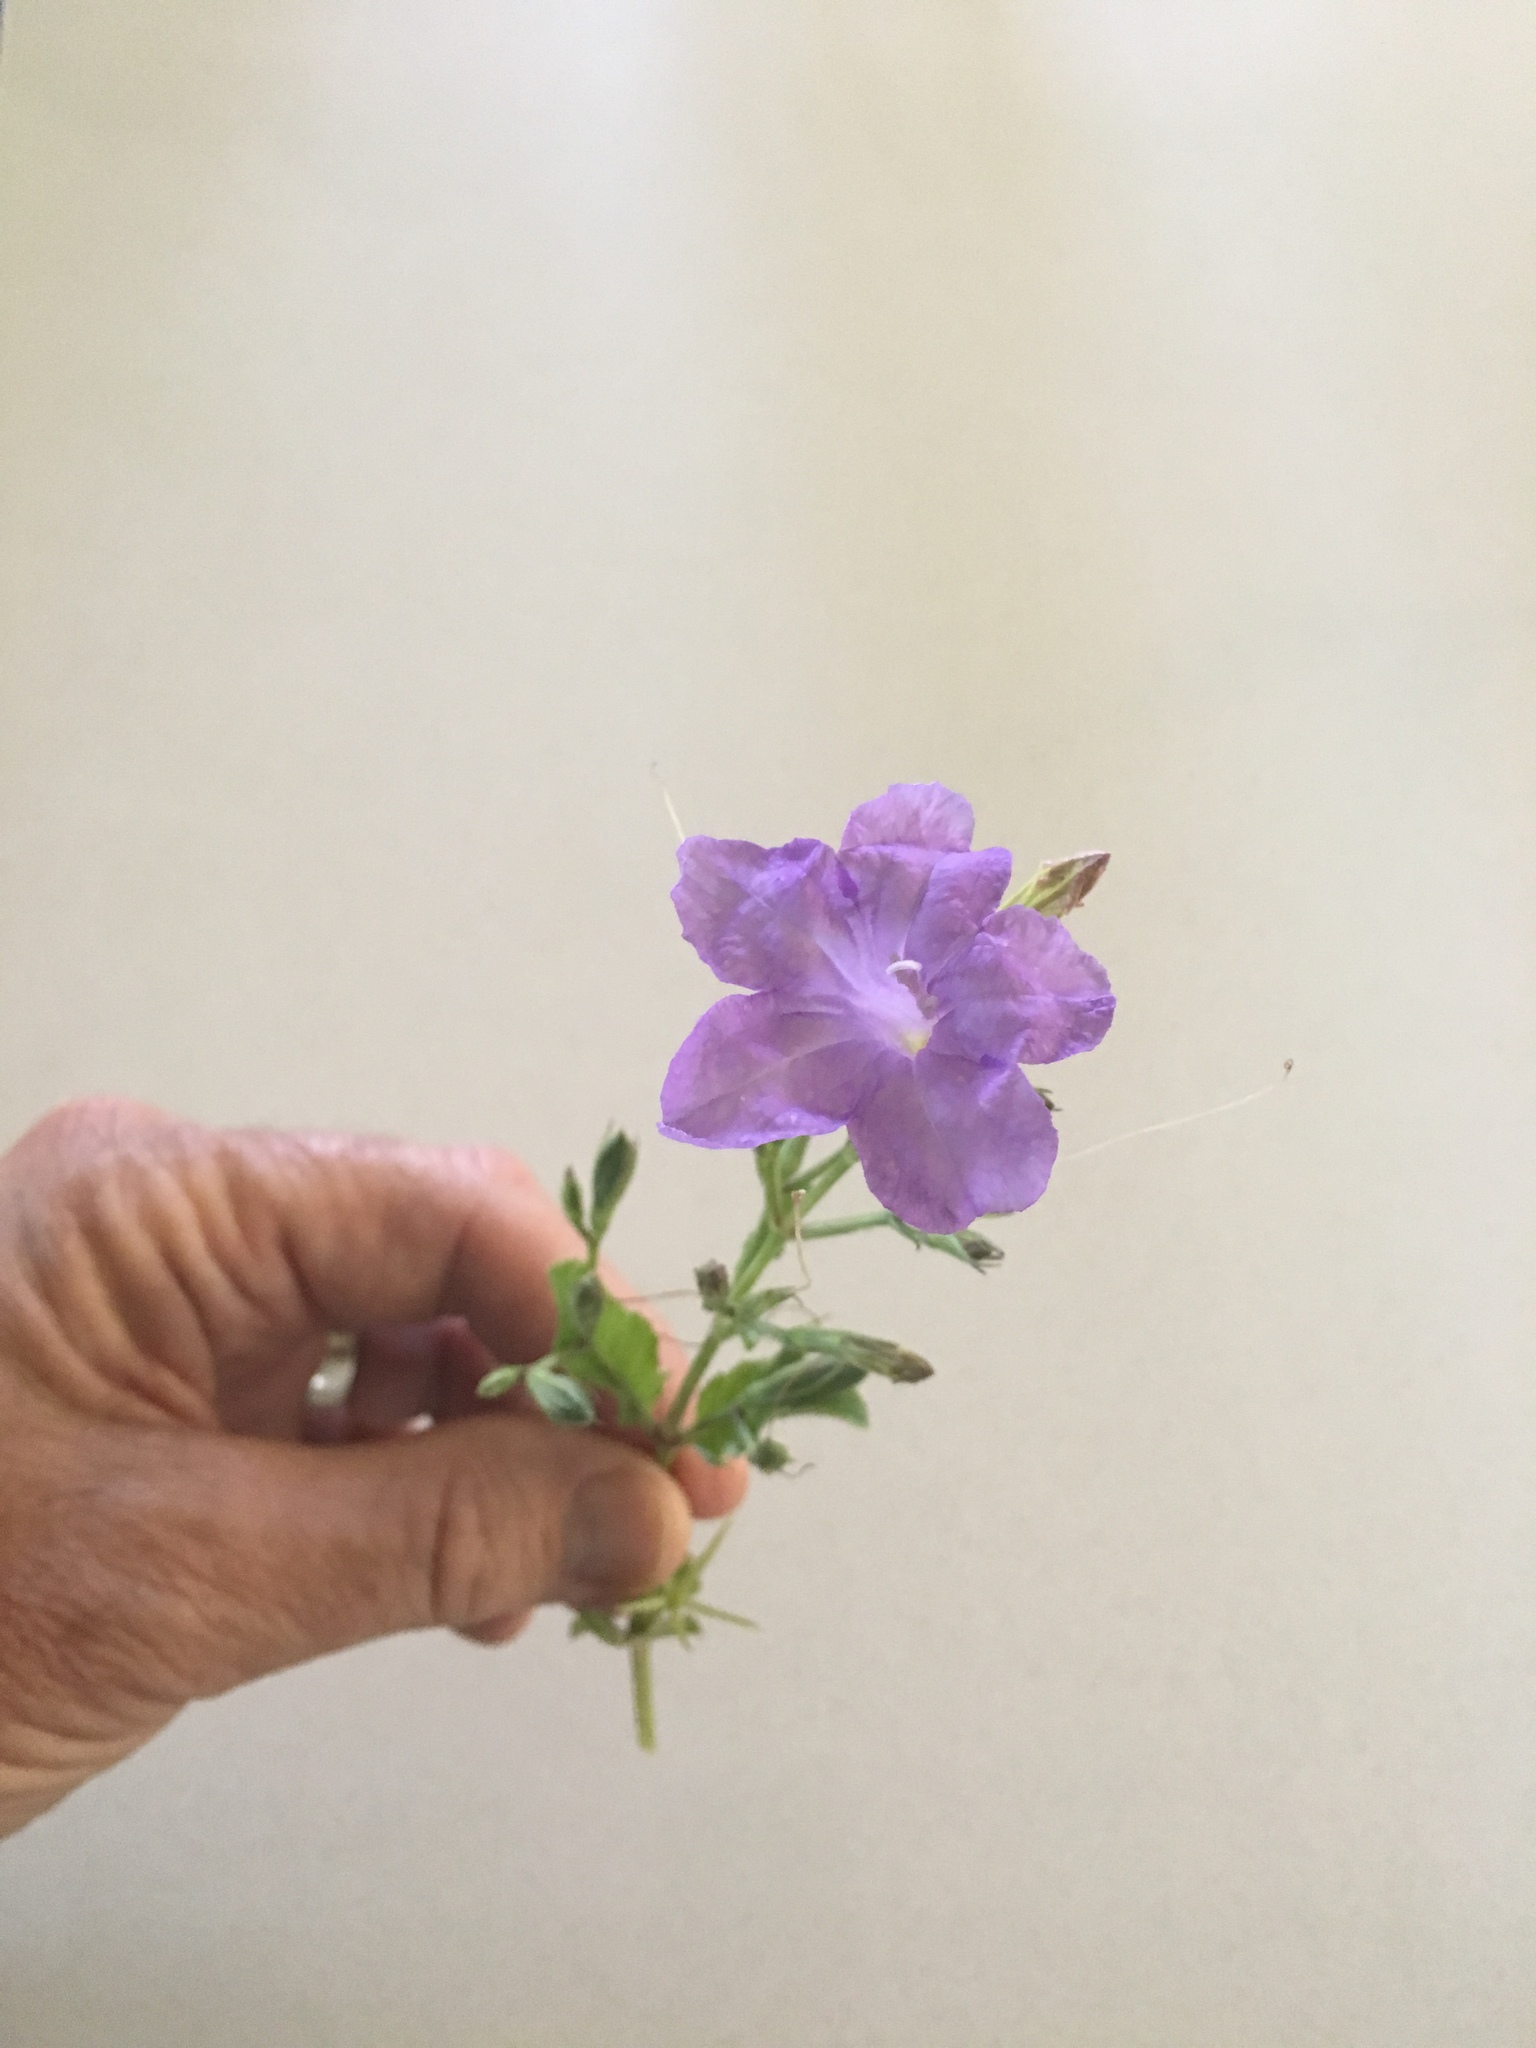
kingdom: Plantae
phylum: Tracheophyta
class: Magnoliopsida
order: Lamiales
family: Acanthaceae
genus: Ruellia
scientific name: Ruellia ciliatiflora
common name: Hairyflower wild petunia
